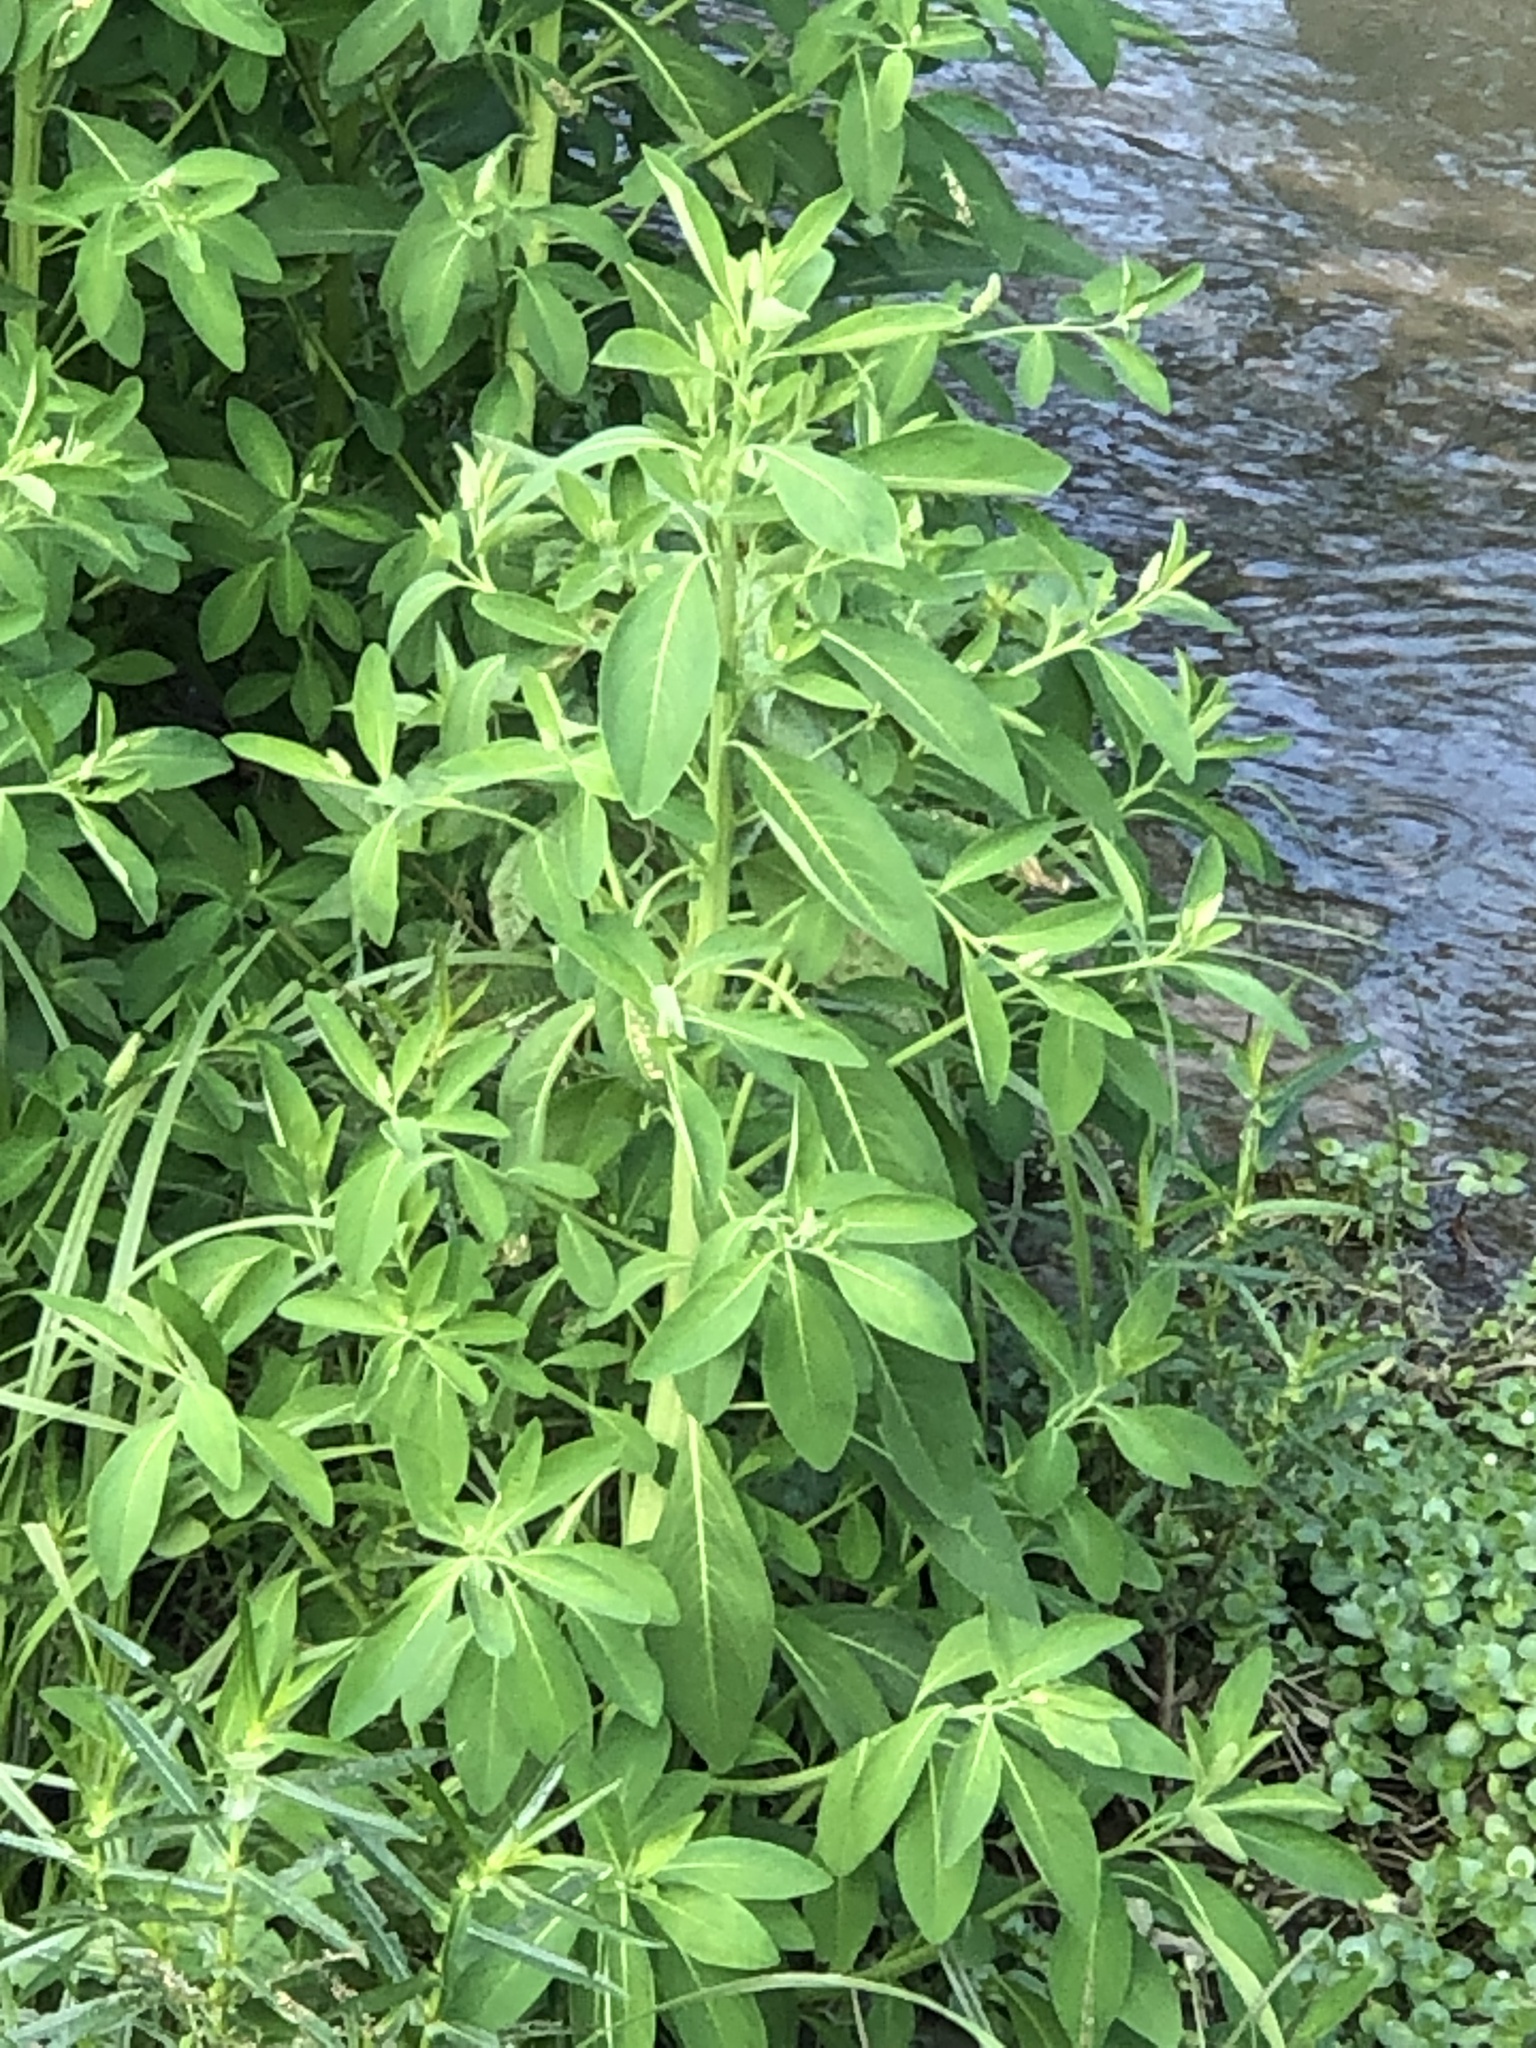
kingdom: Plantae
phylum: Tracheophyta
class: Magnoliopsida
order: Solanales
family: Sphenocleaceae
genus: Sphenoclea
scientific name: Sphenoclea zeylanica
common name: Chickenspike
